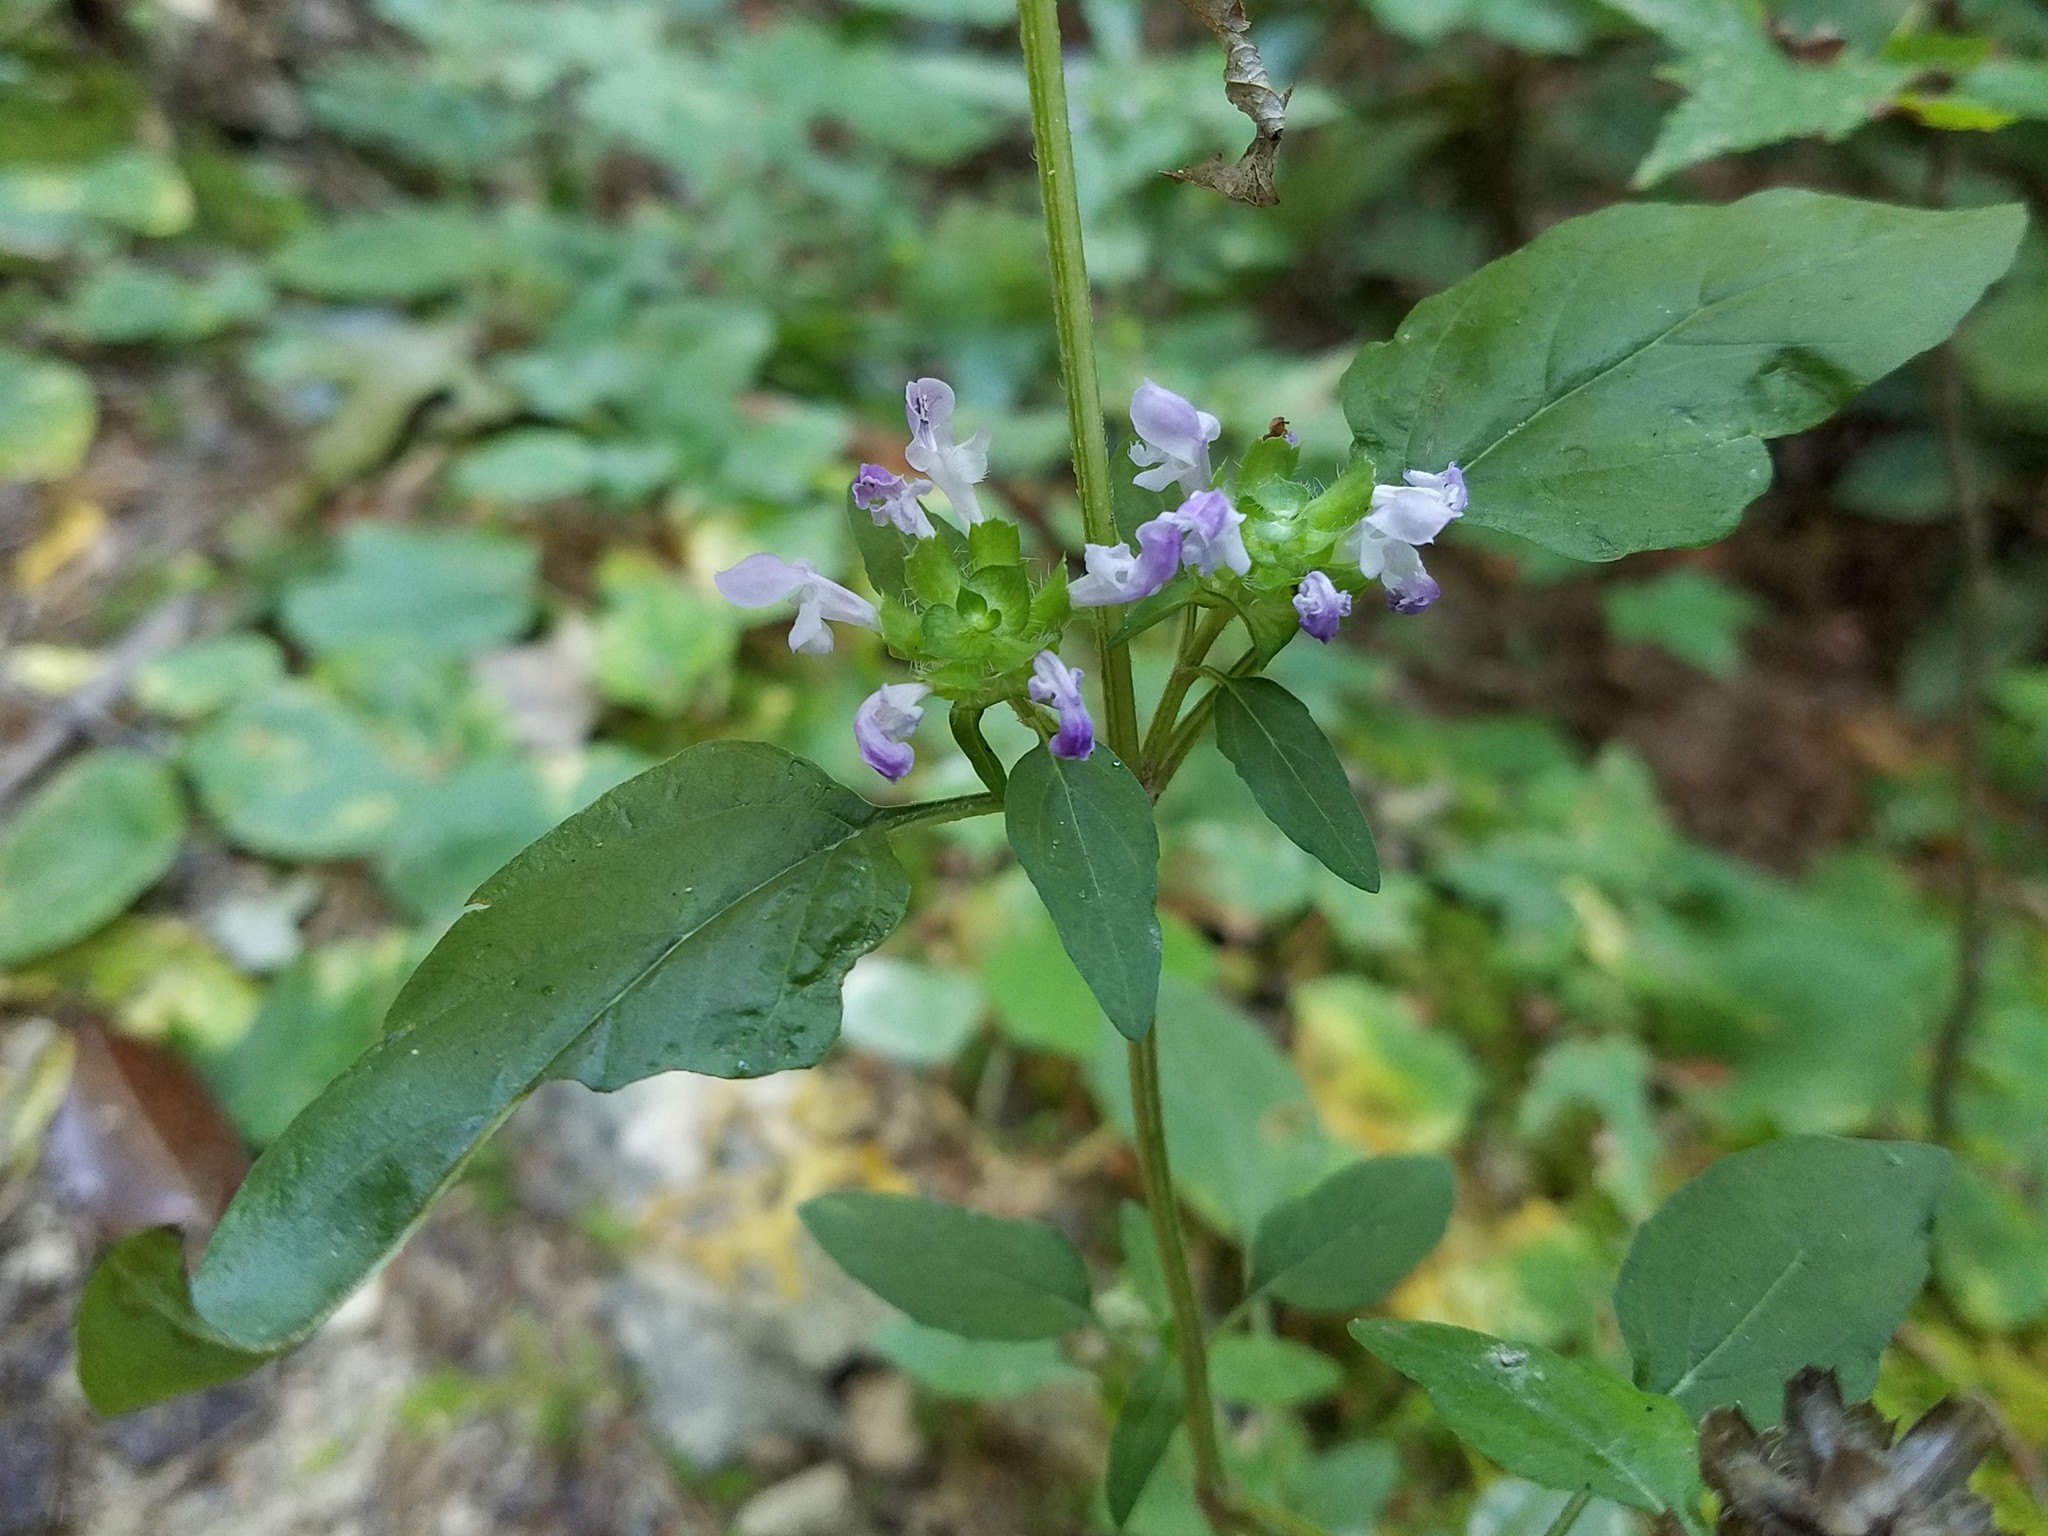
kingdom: Plantae
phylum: Tracheophyta
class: Magnoliopsida
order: Lamiales
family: Lamiaceae
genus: Prunella
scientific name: Prunella vulgaris
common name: Heal-all
